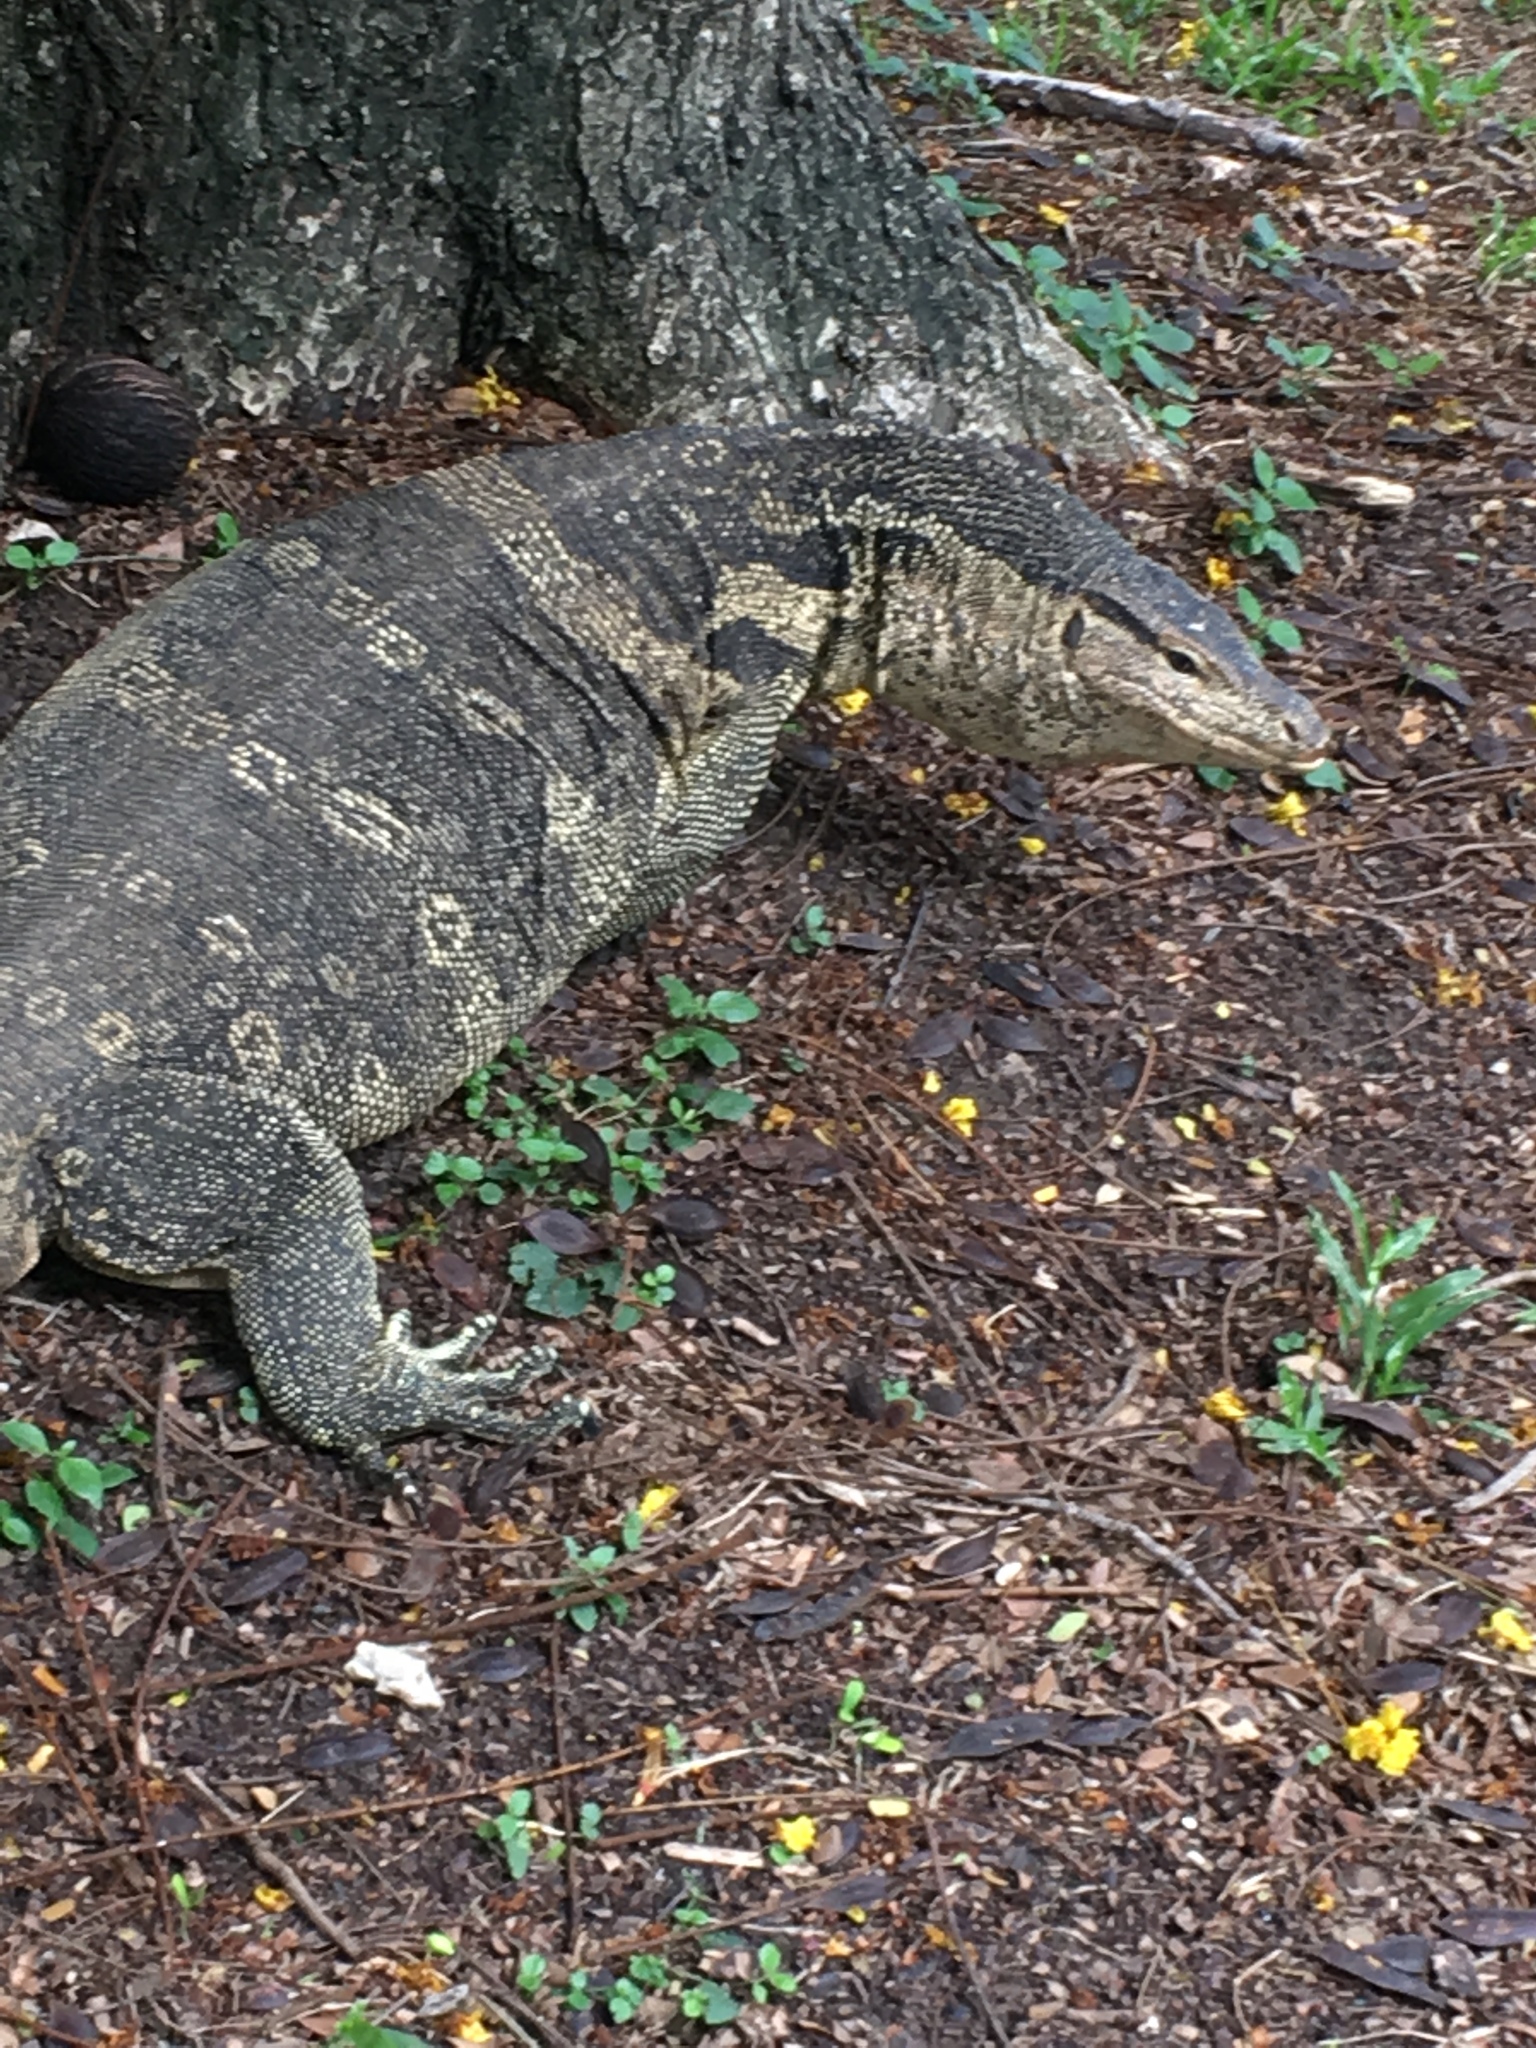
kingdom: Animalia
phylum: Chordata
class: Squamata
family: Varanidae
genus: Varanus
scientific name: Varanus salvator
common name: Common water monitor
